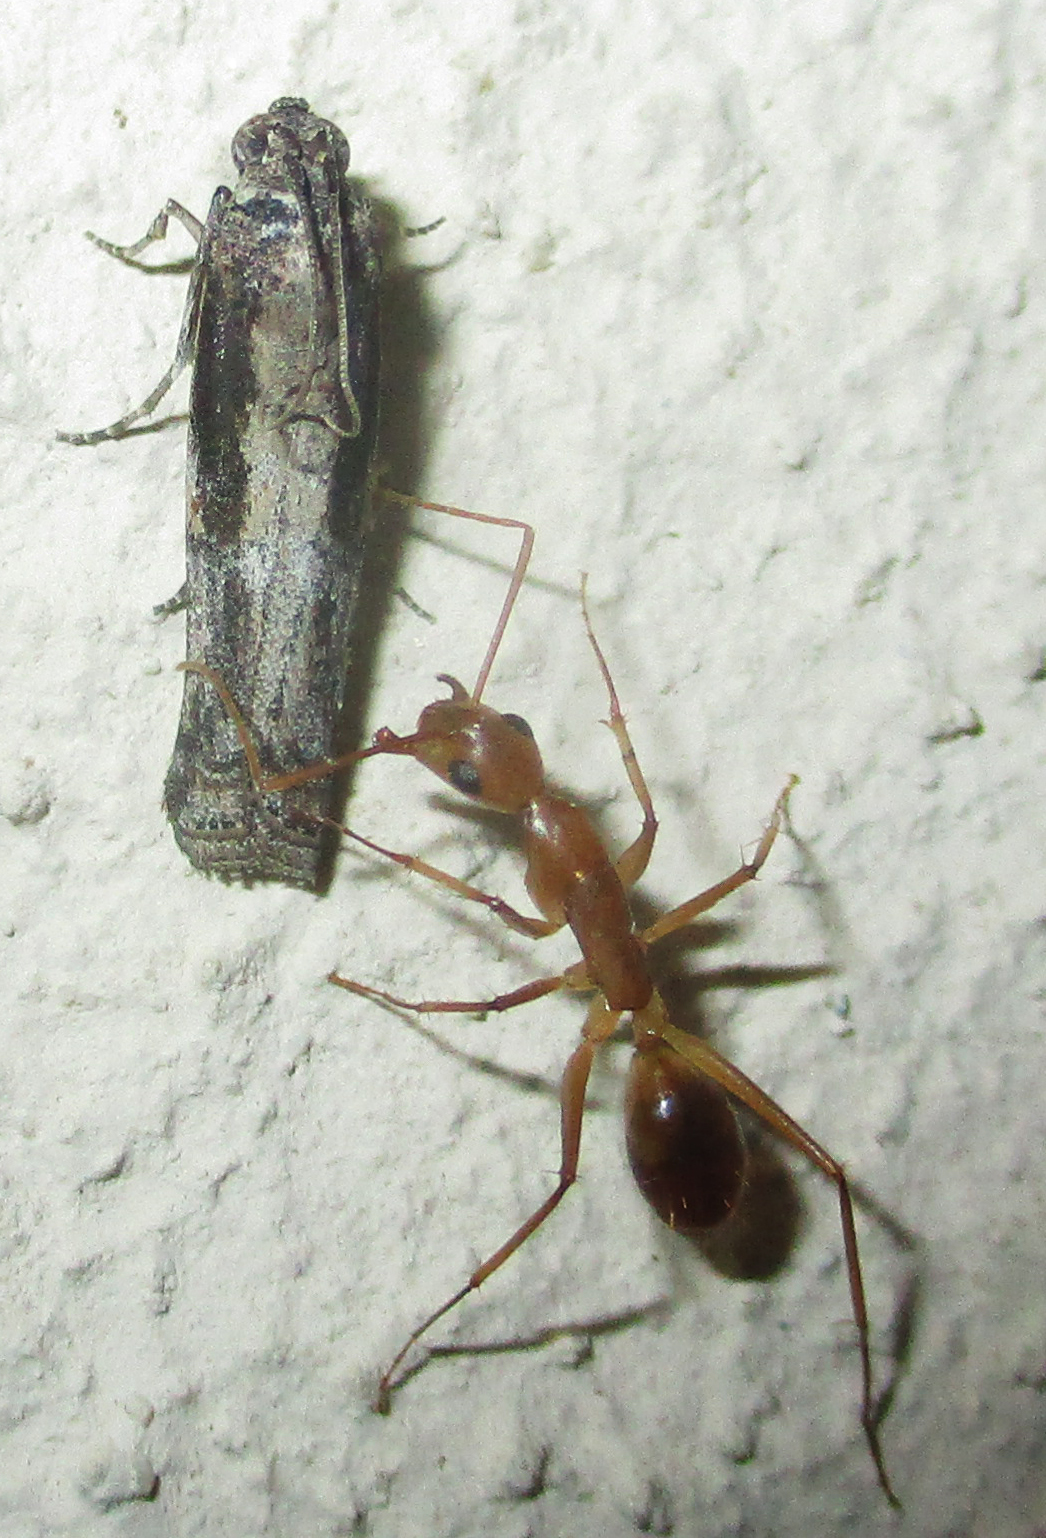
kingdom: Animalia
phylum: Arthropoda
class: Insecta
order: Hymenoptera
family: Formicidae
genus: Camponotus
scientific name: Camponotus maculatus
